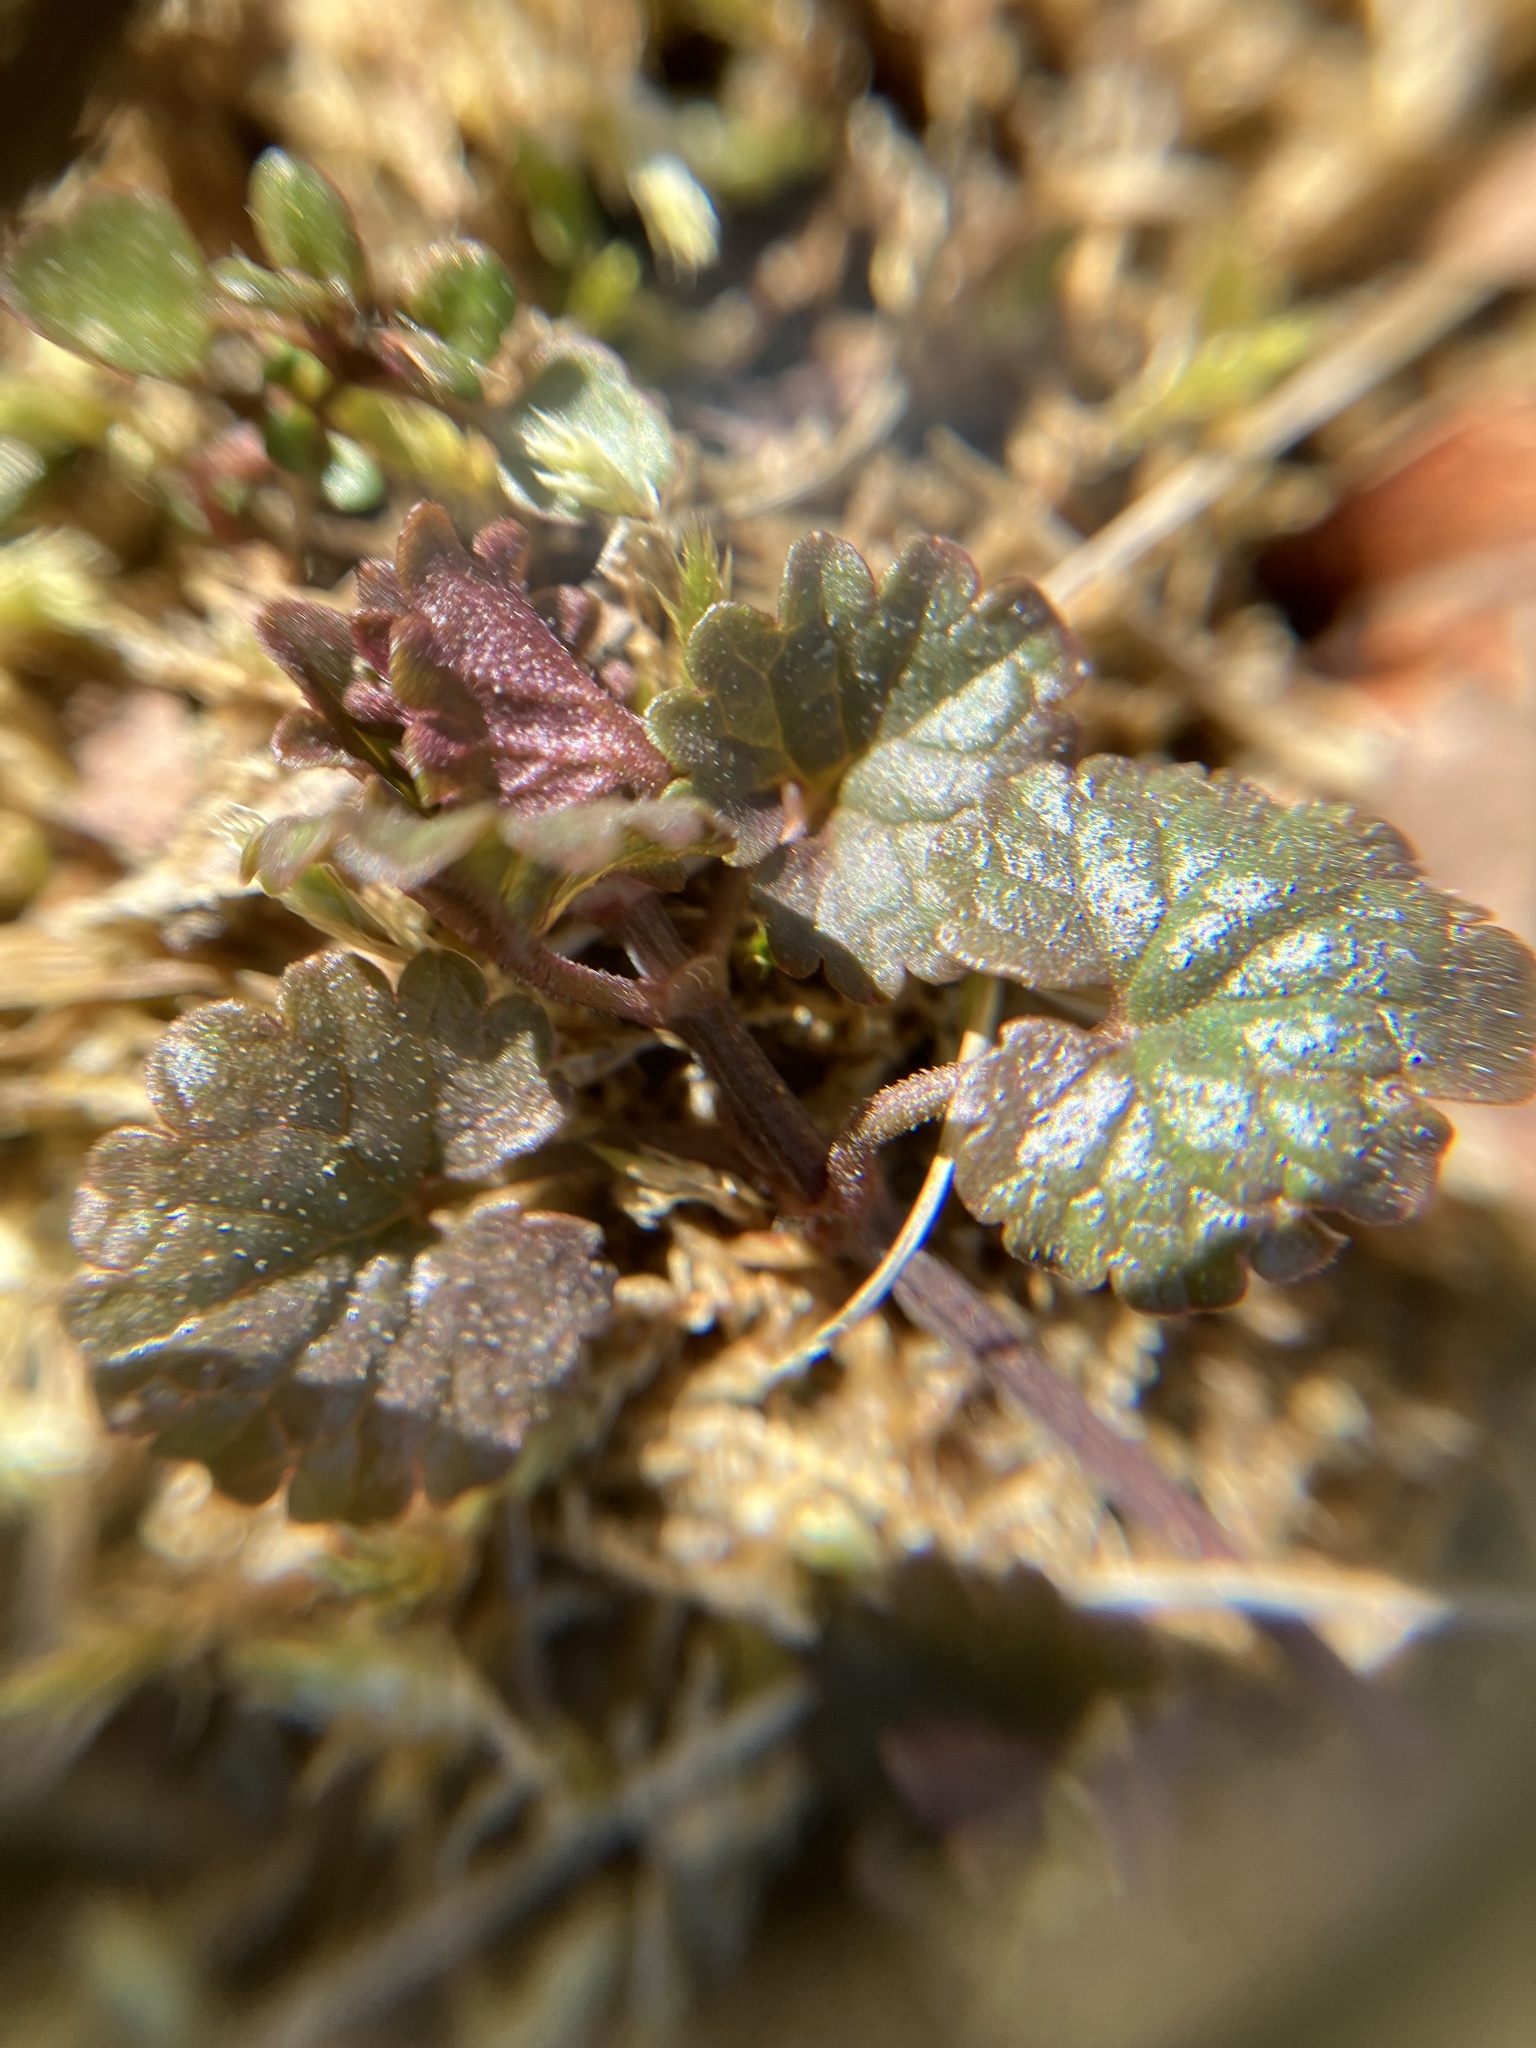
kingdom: Plantae
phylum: Tracheophyta
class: Magnoliopsida
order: Lamiales
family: Lamiaceae
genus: Glechoma
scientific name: Glechoma hederacea
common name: Ground ivy
